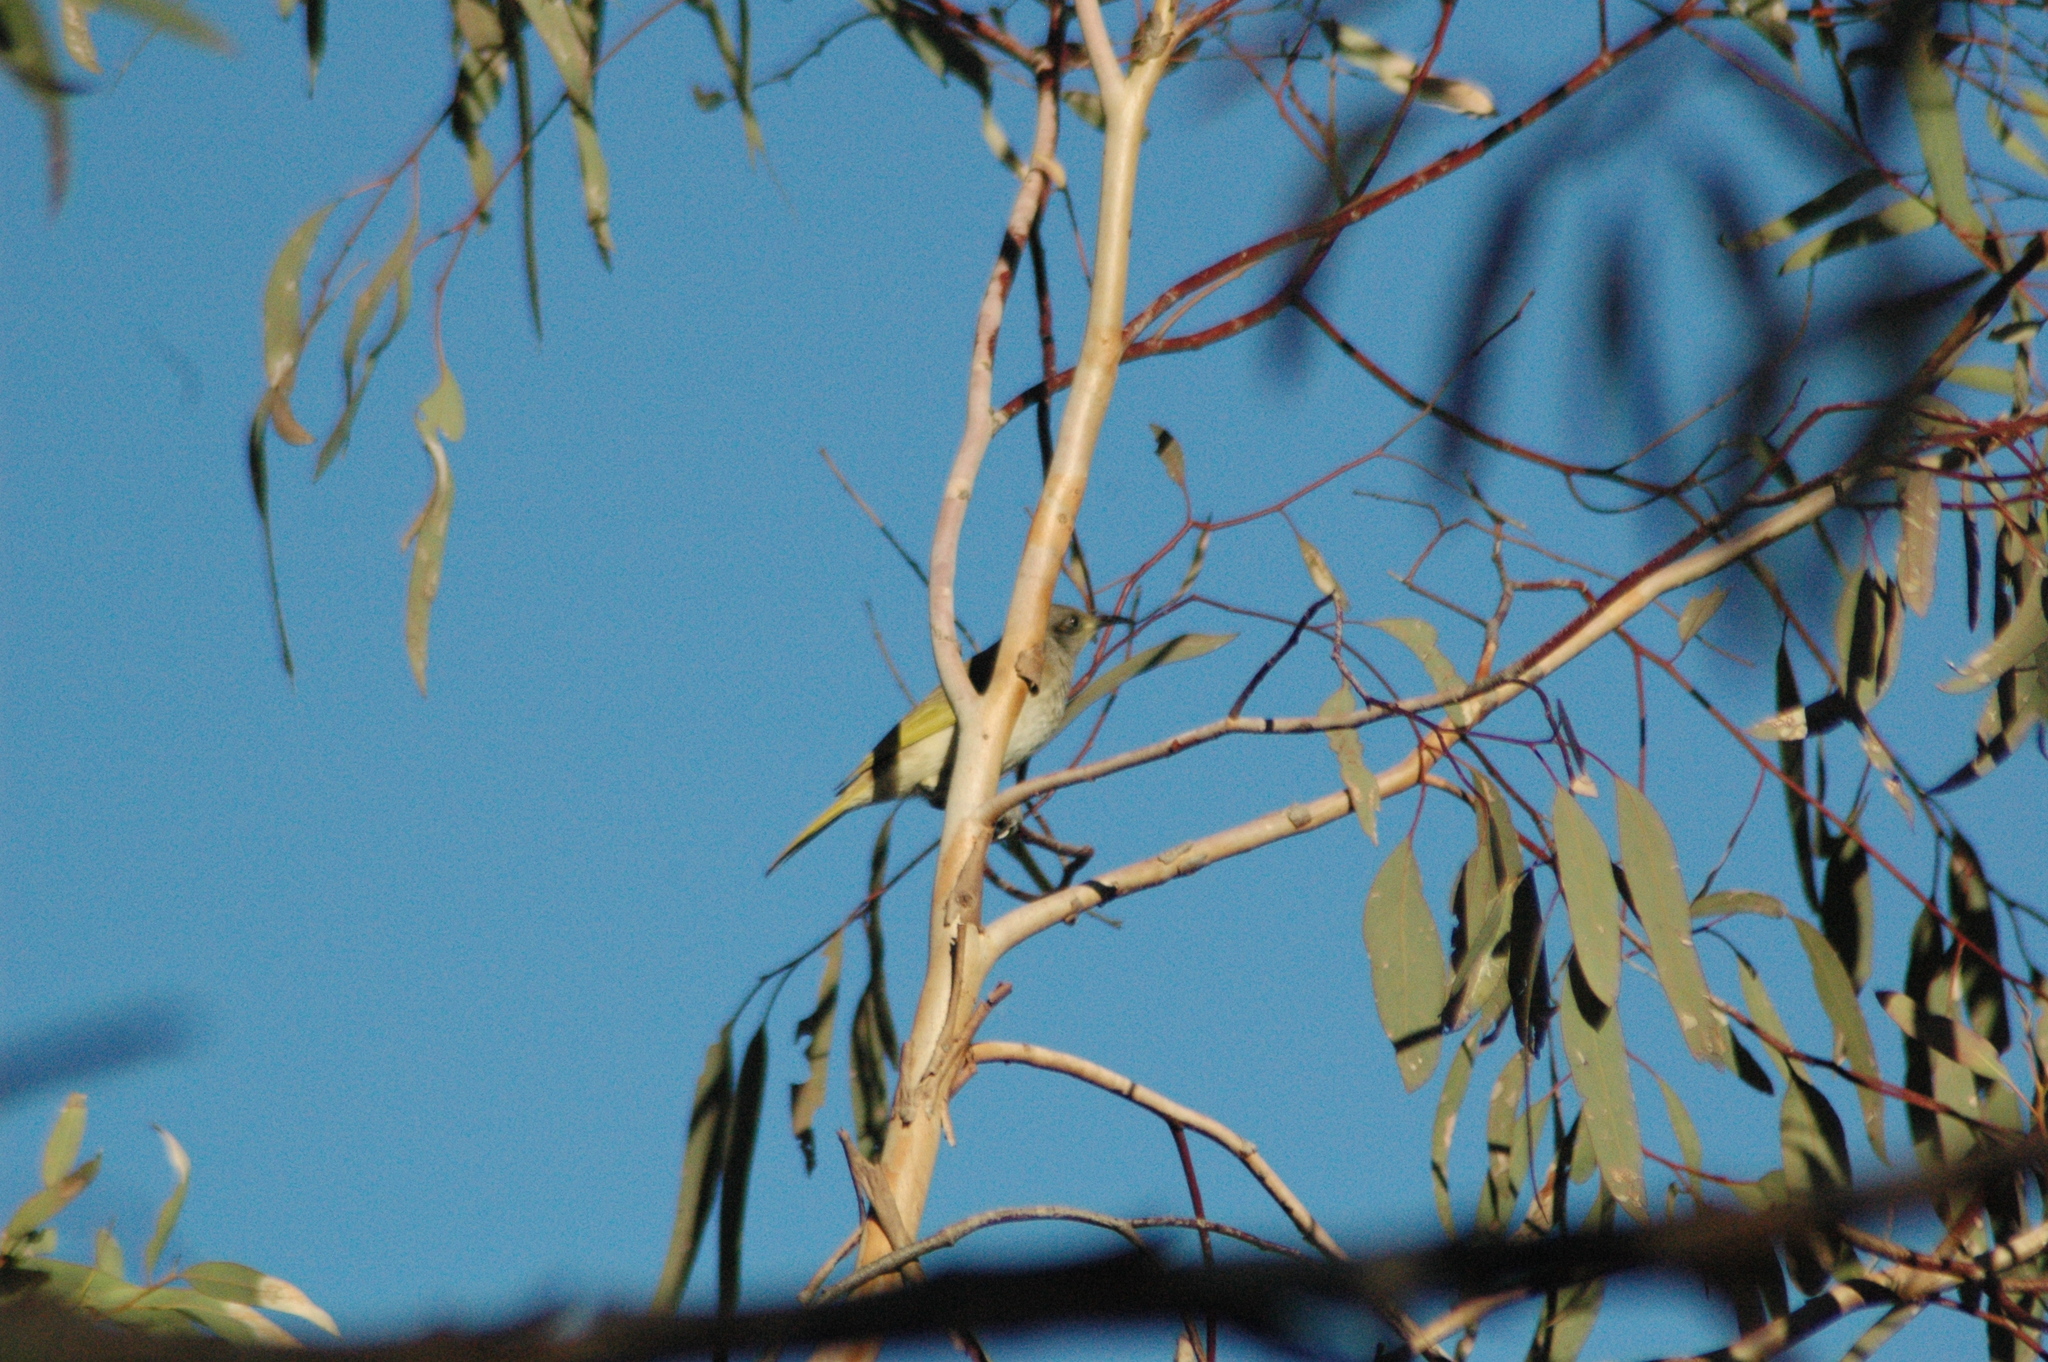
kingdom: Animalia
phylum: Chordata
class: Aves
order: Passeriformes
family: Meliphagidae
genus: Lichmera
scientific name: Lichmera indistincta
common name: Brown honeyeater
